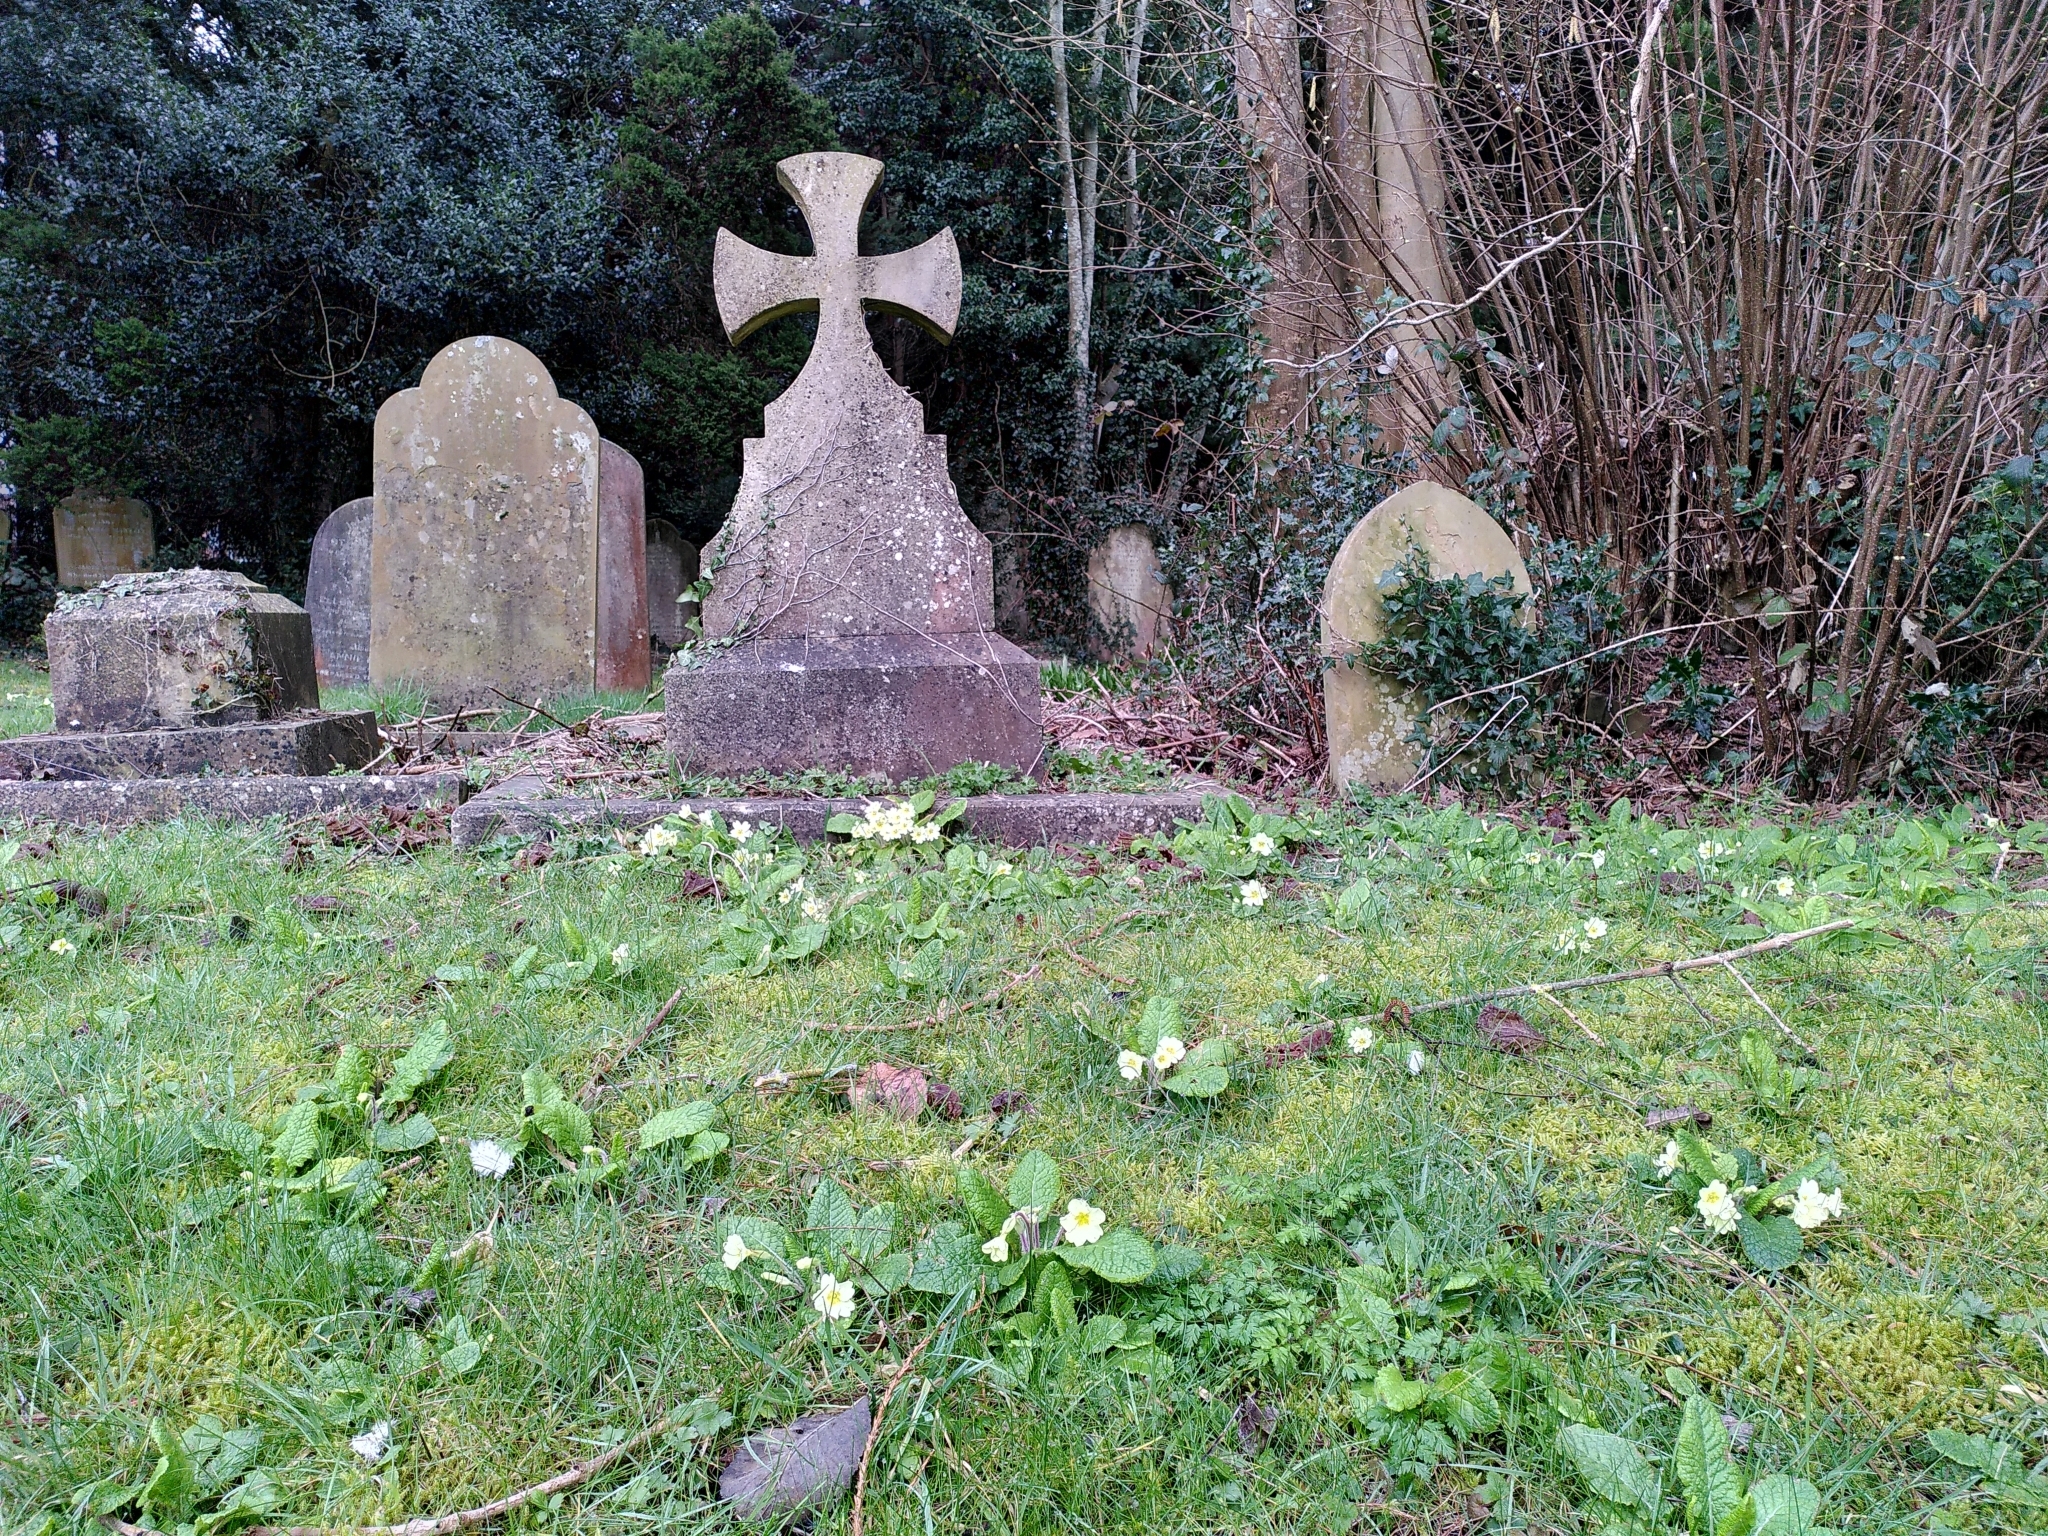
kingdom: Plantae
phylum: Tracheophyta
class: Magnoliopsida
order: Ericales
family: Primulaceae
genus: Primula
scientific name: Primula vulgaris
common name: Primrose
